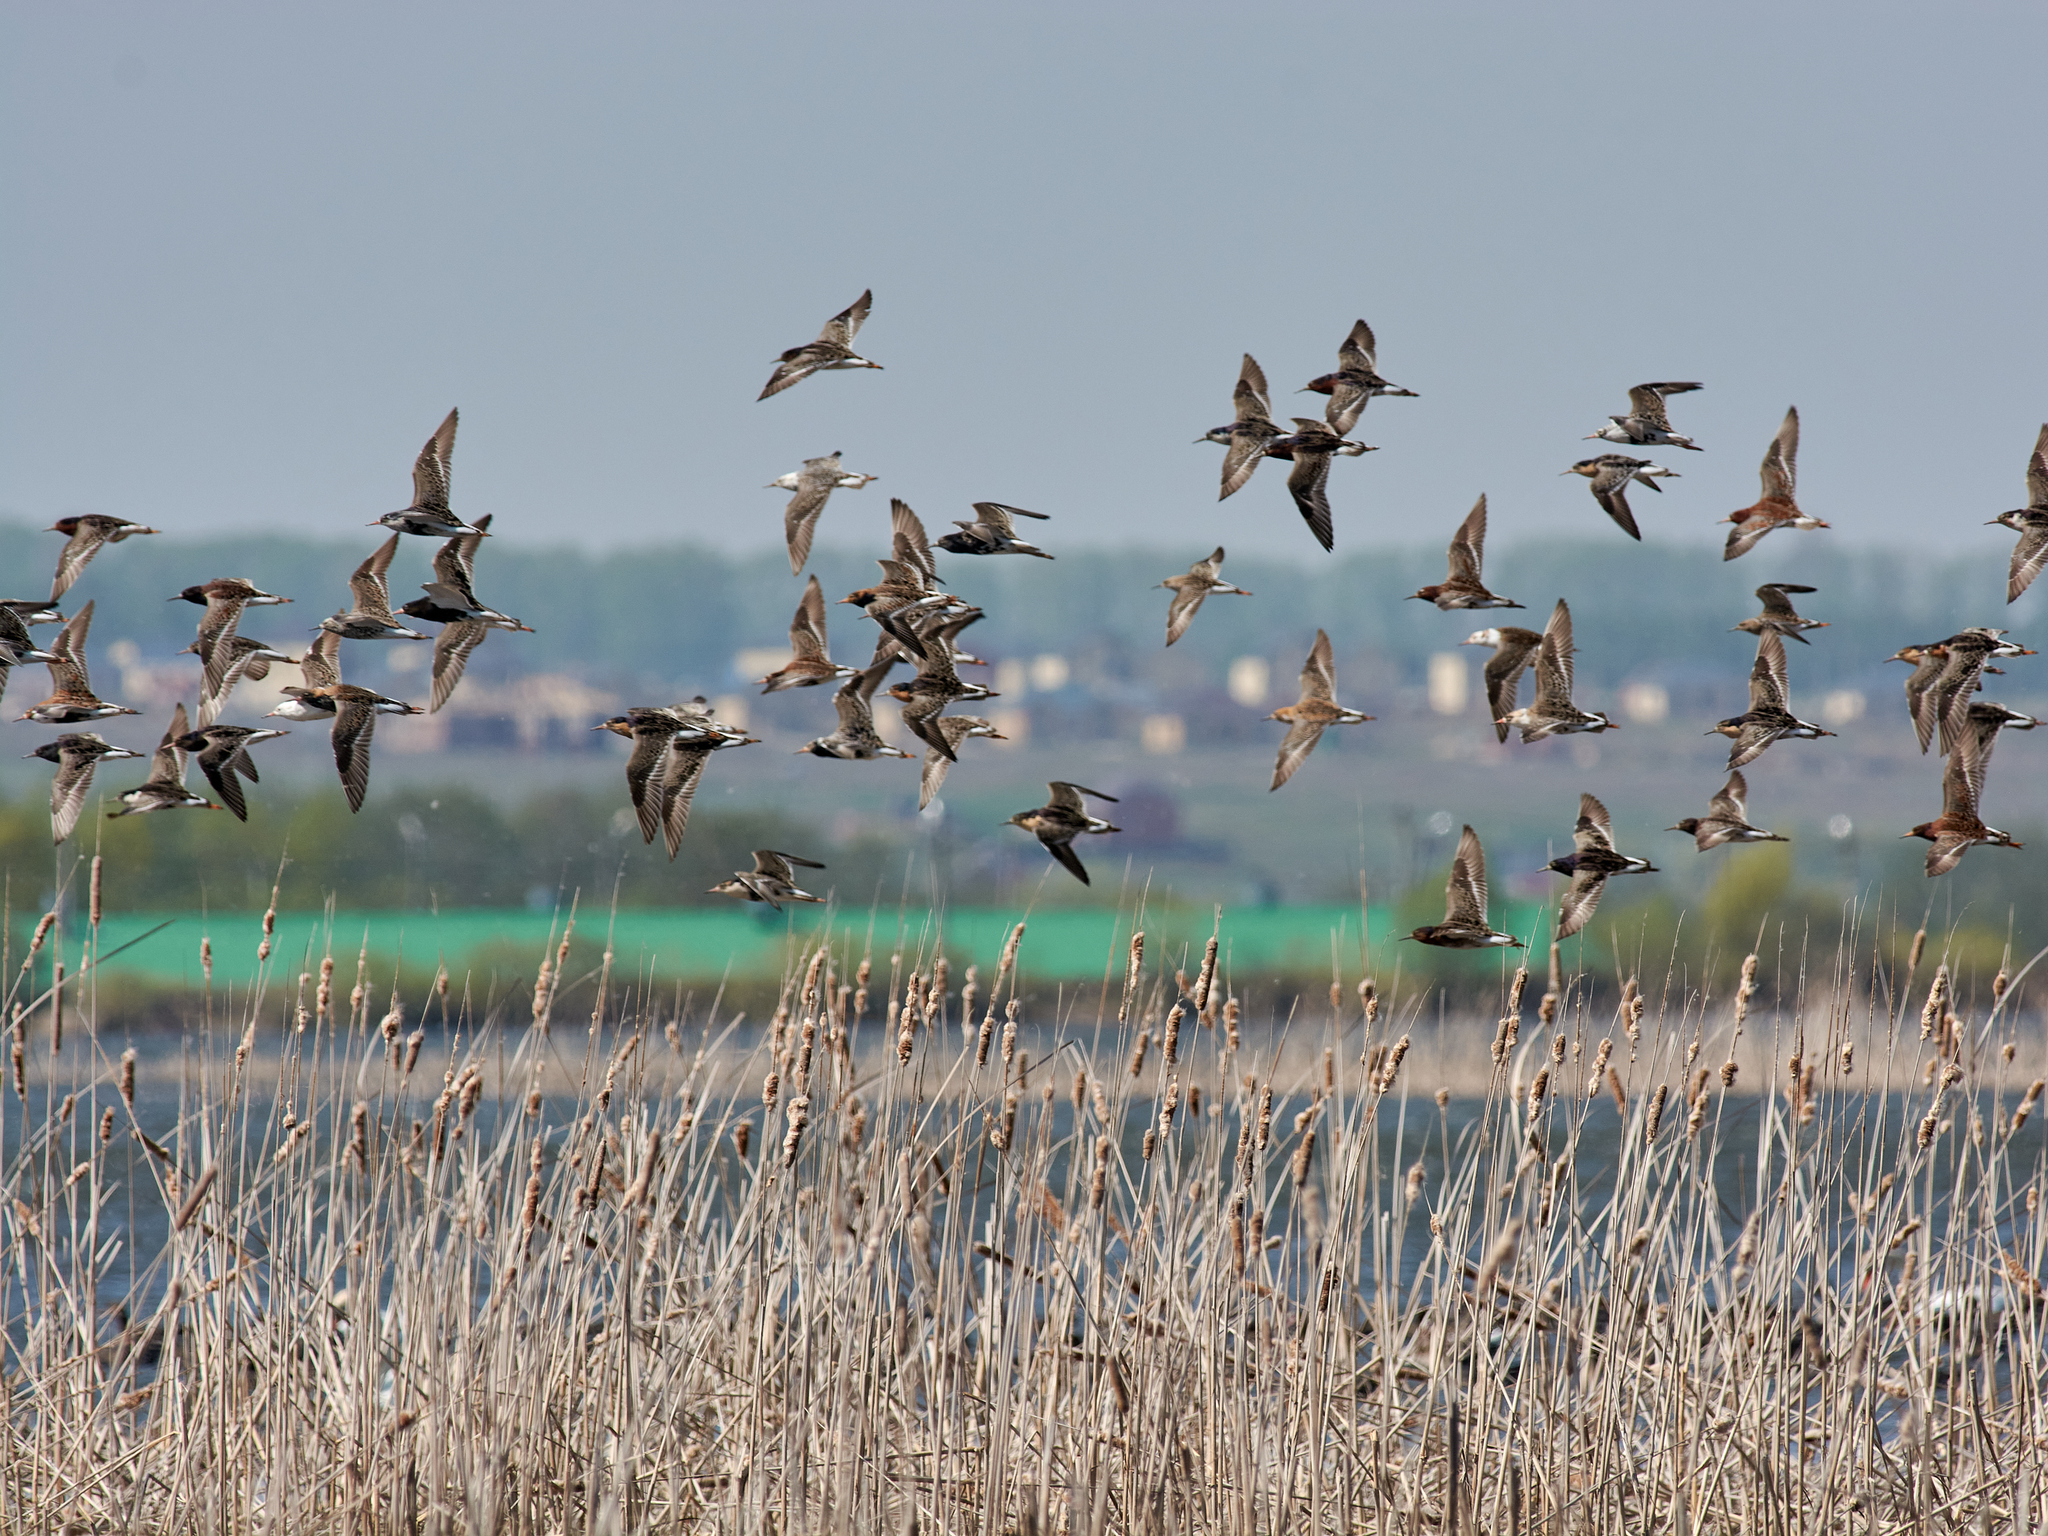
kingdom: Animalia
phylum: Chordata
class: Aves
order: Charadriiformes
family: Scolopacidae
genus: Calidris
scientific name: Calidris pugnax
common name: Ruff
